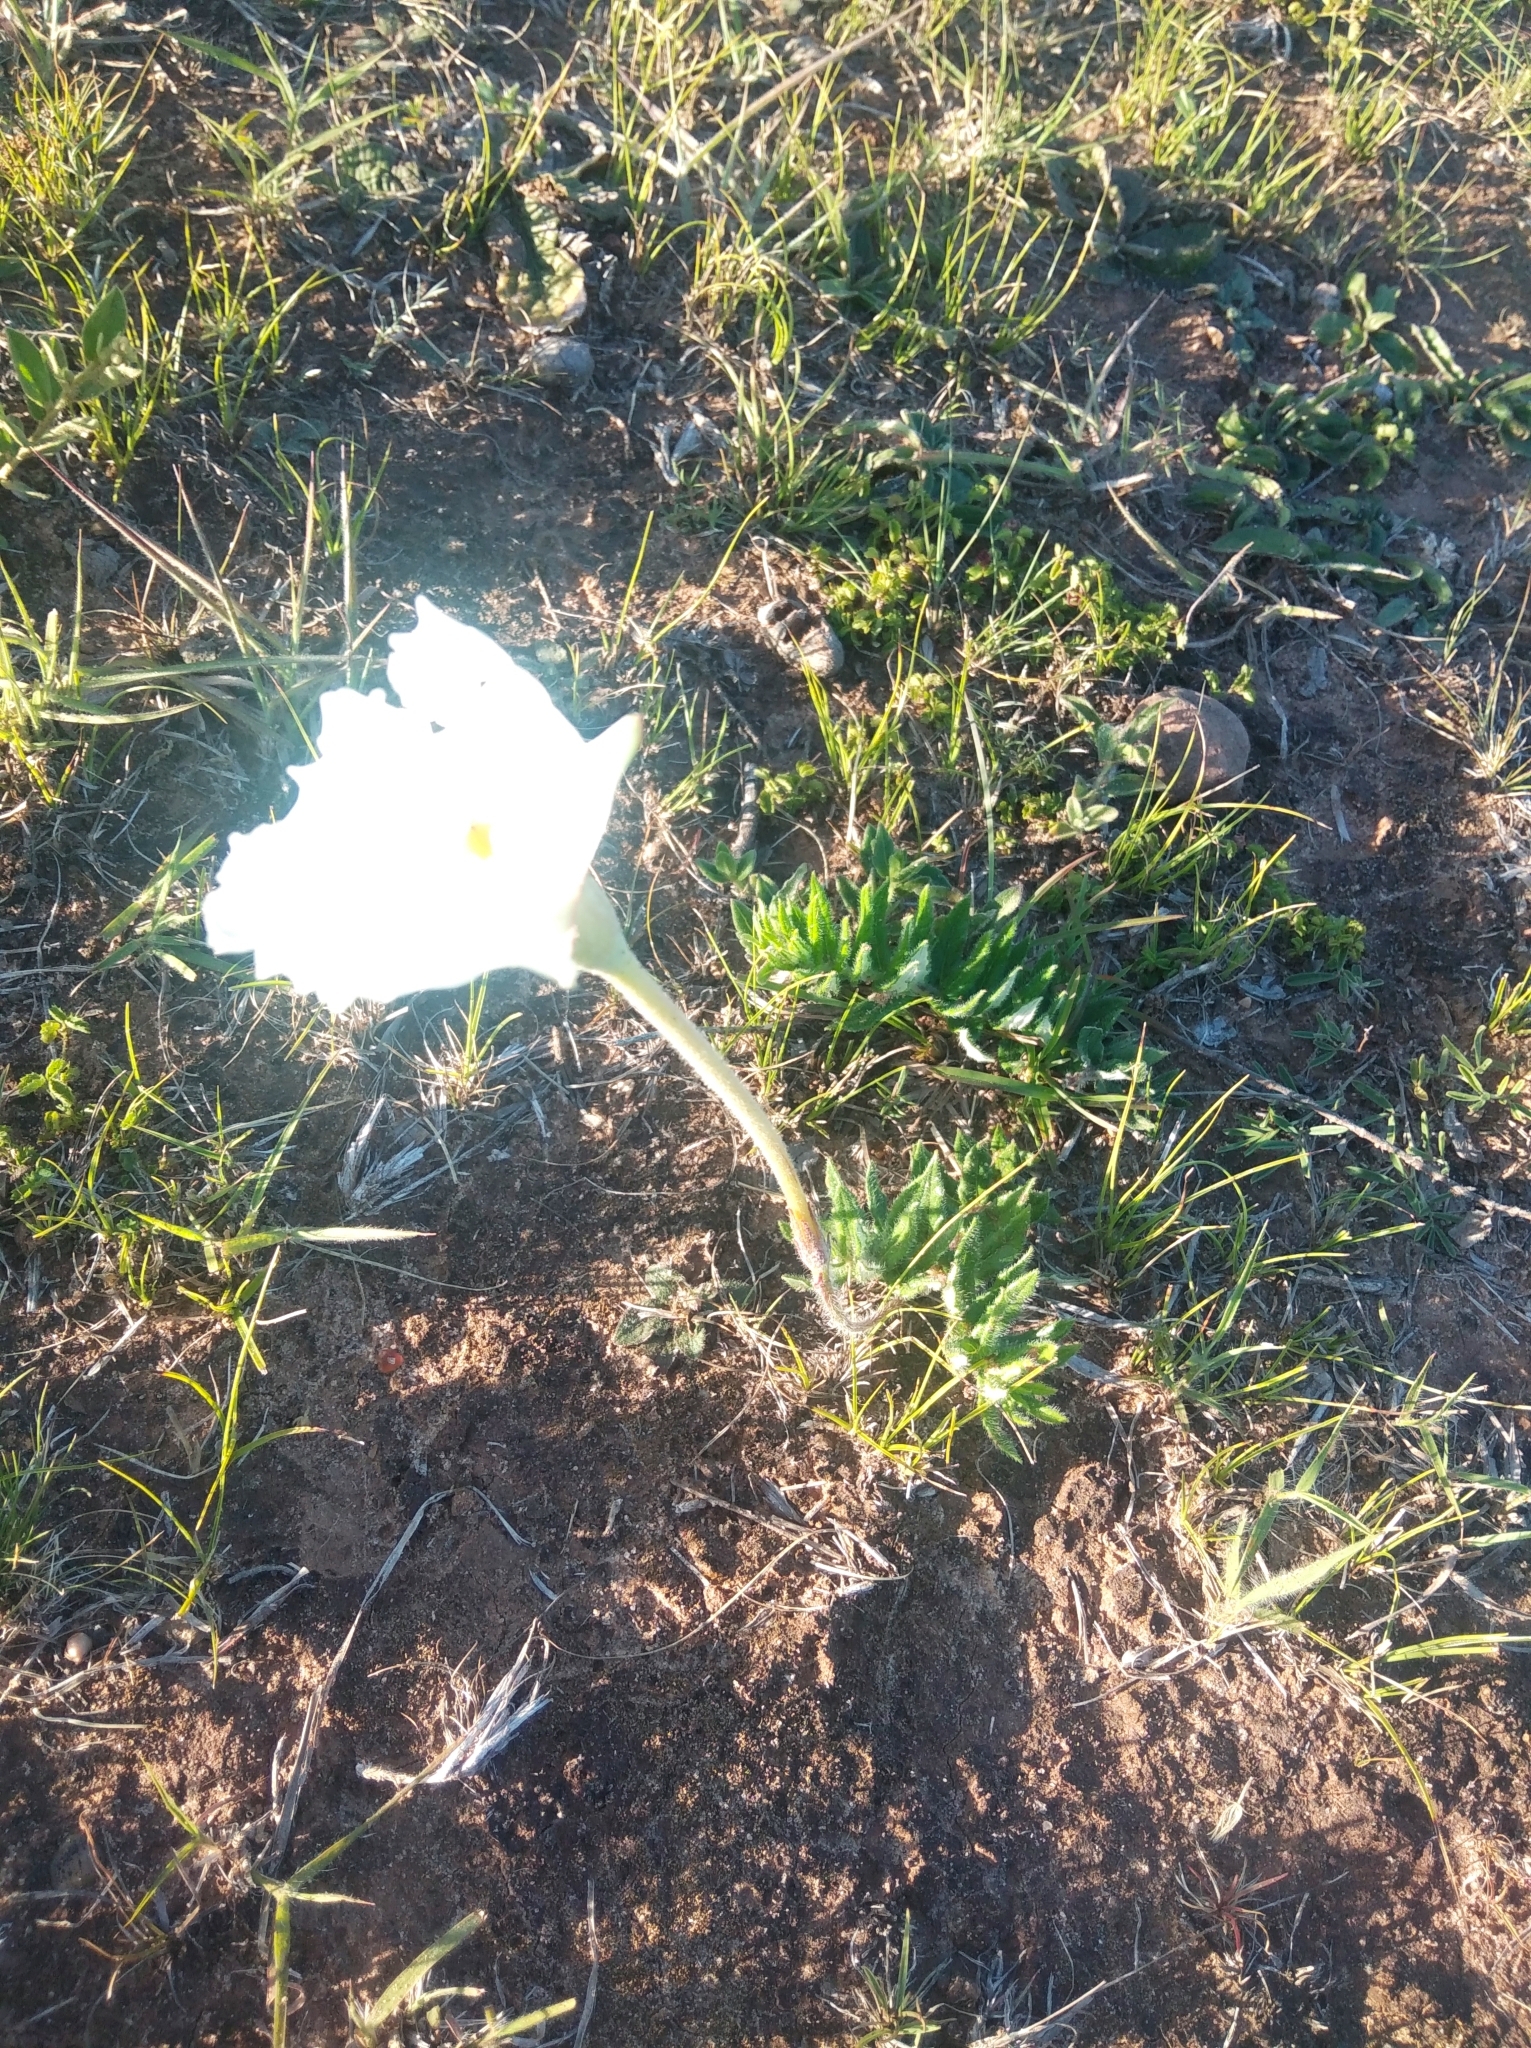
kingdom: Plantae
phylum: Tracheophyta
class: Magnoliopsida
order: Gentianales
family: Apocynaceae
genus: Mandevilla
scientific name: Mandevilla petraea
